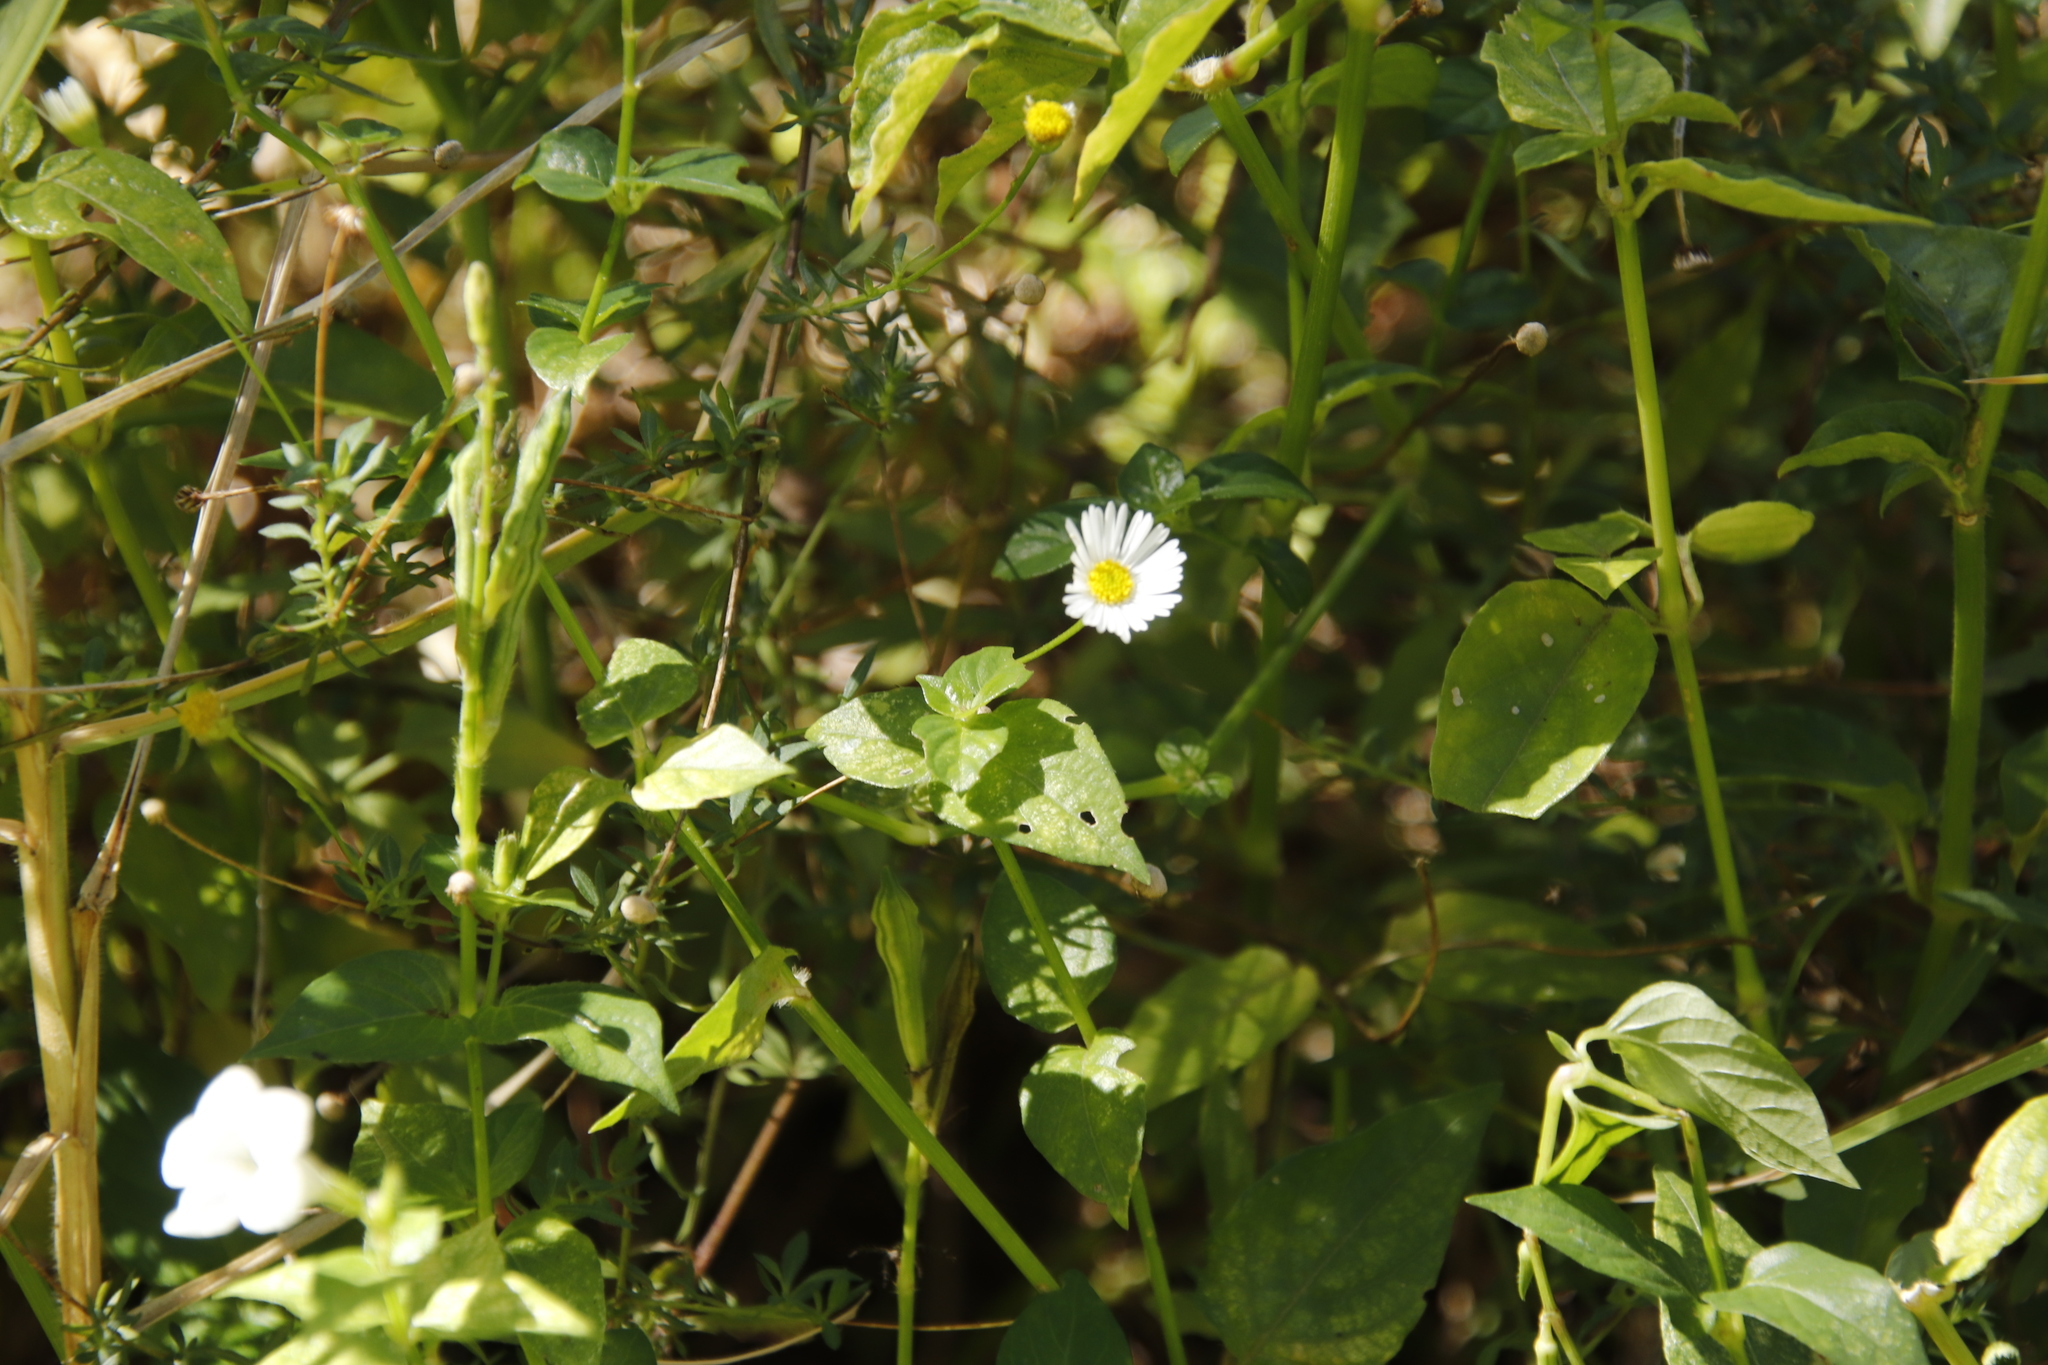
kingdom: Plantae
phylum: Tracheophyta
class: Magnoliopsida
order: Asterales
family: Asteraceae
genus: Erigeron
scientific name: Erigeron karvinskianus
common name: Mexican fleabane
